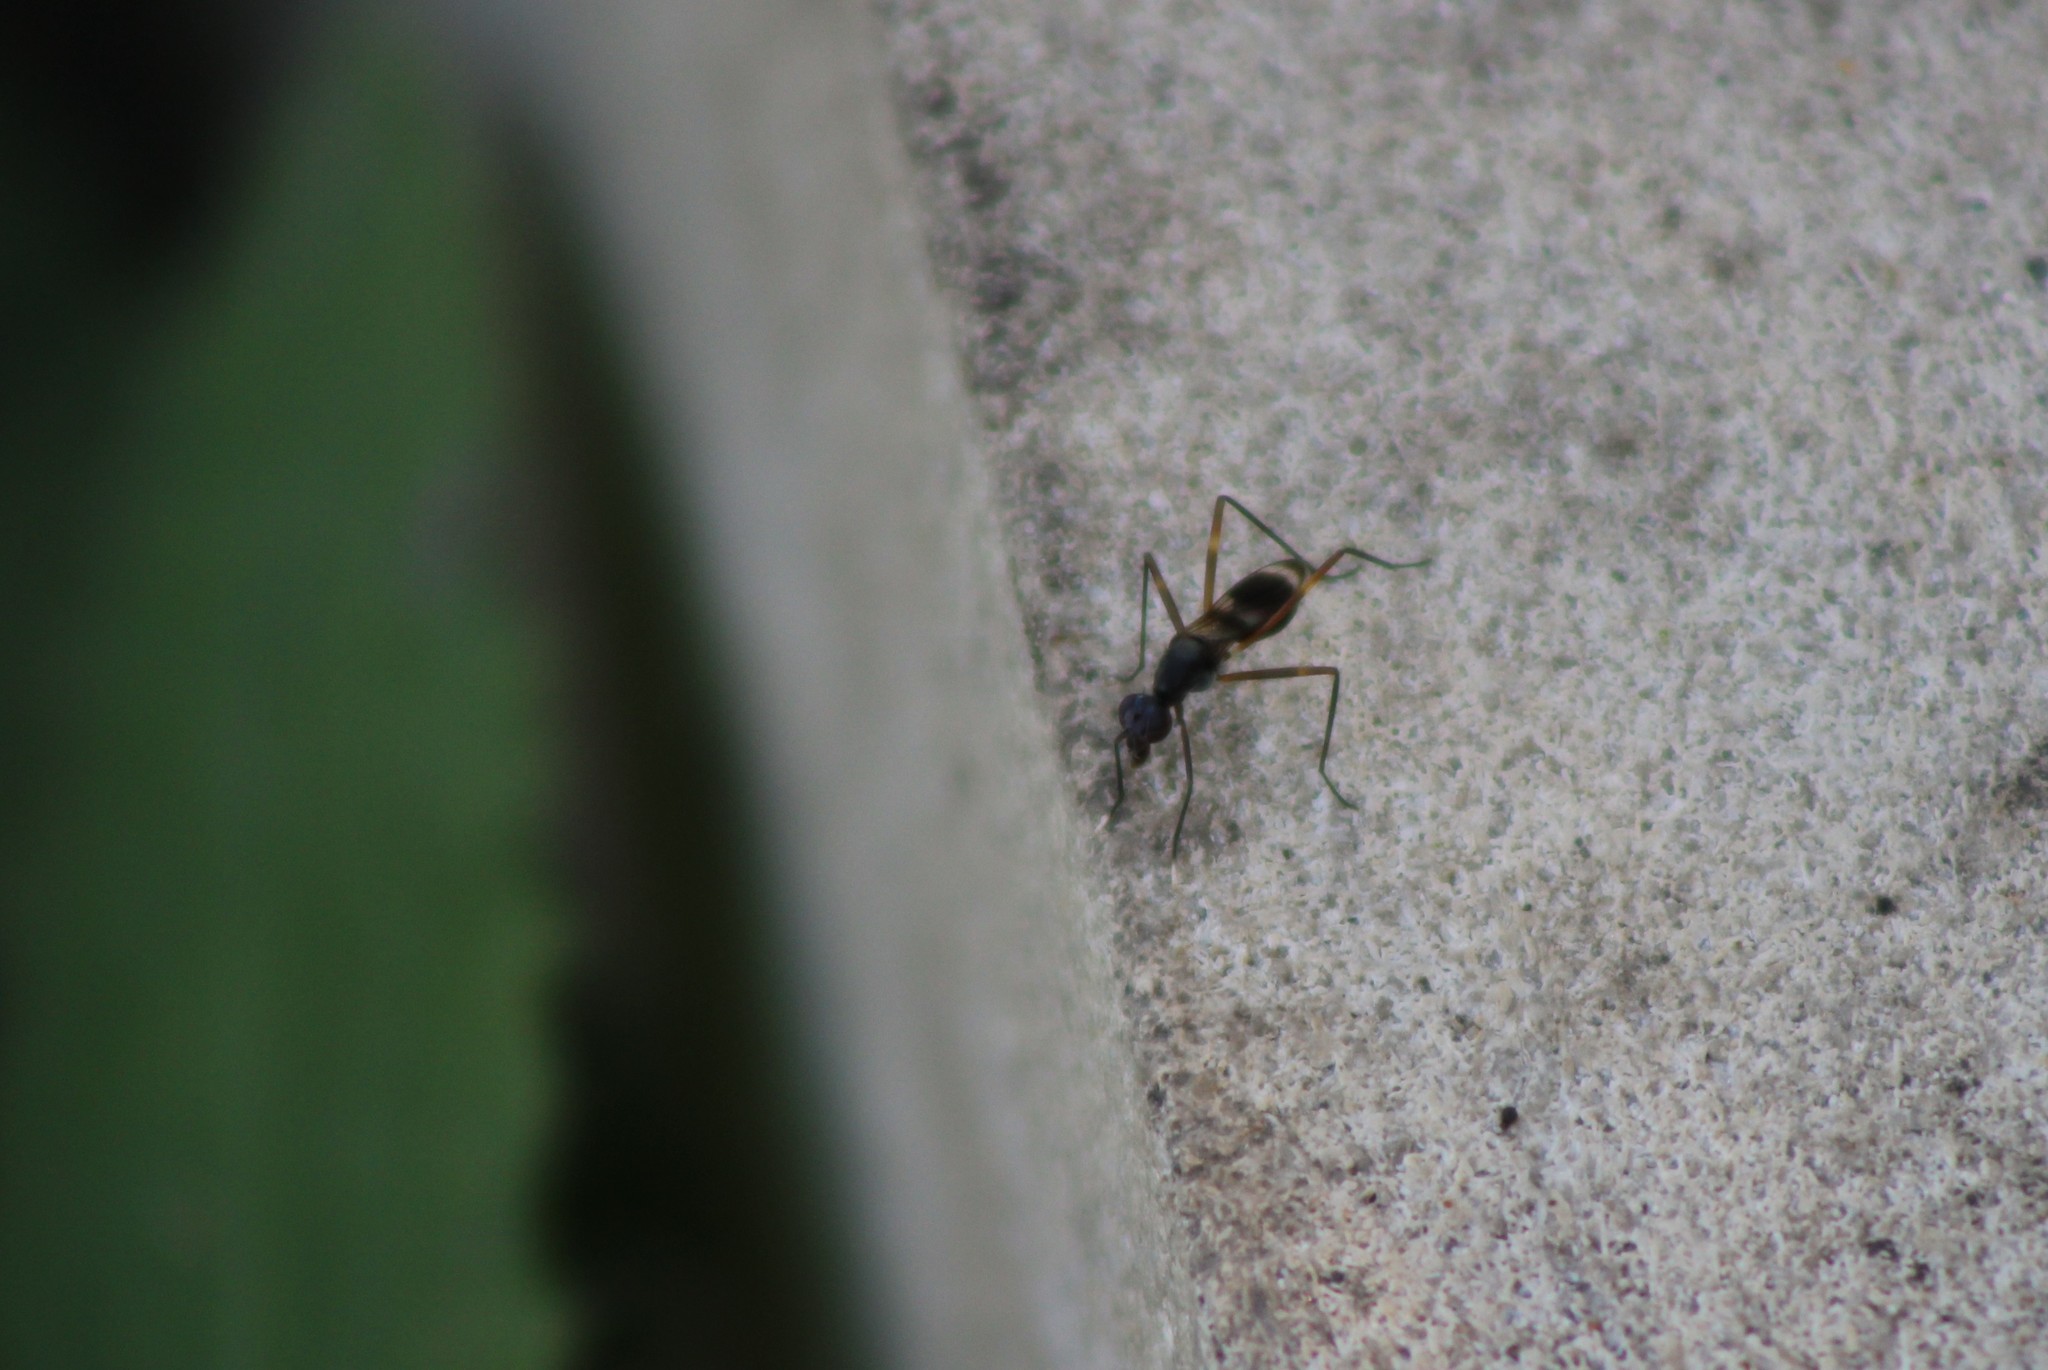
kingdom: Animalia
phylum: Arthropoda
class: Insecta
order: Diptera
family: Micropezidae
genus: Taeniaptera
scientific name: Taeniaptera trivittata
